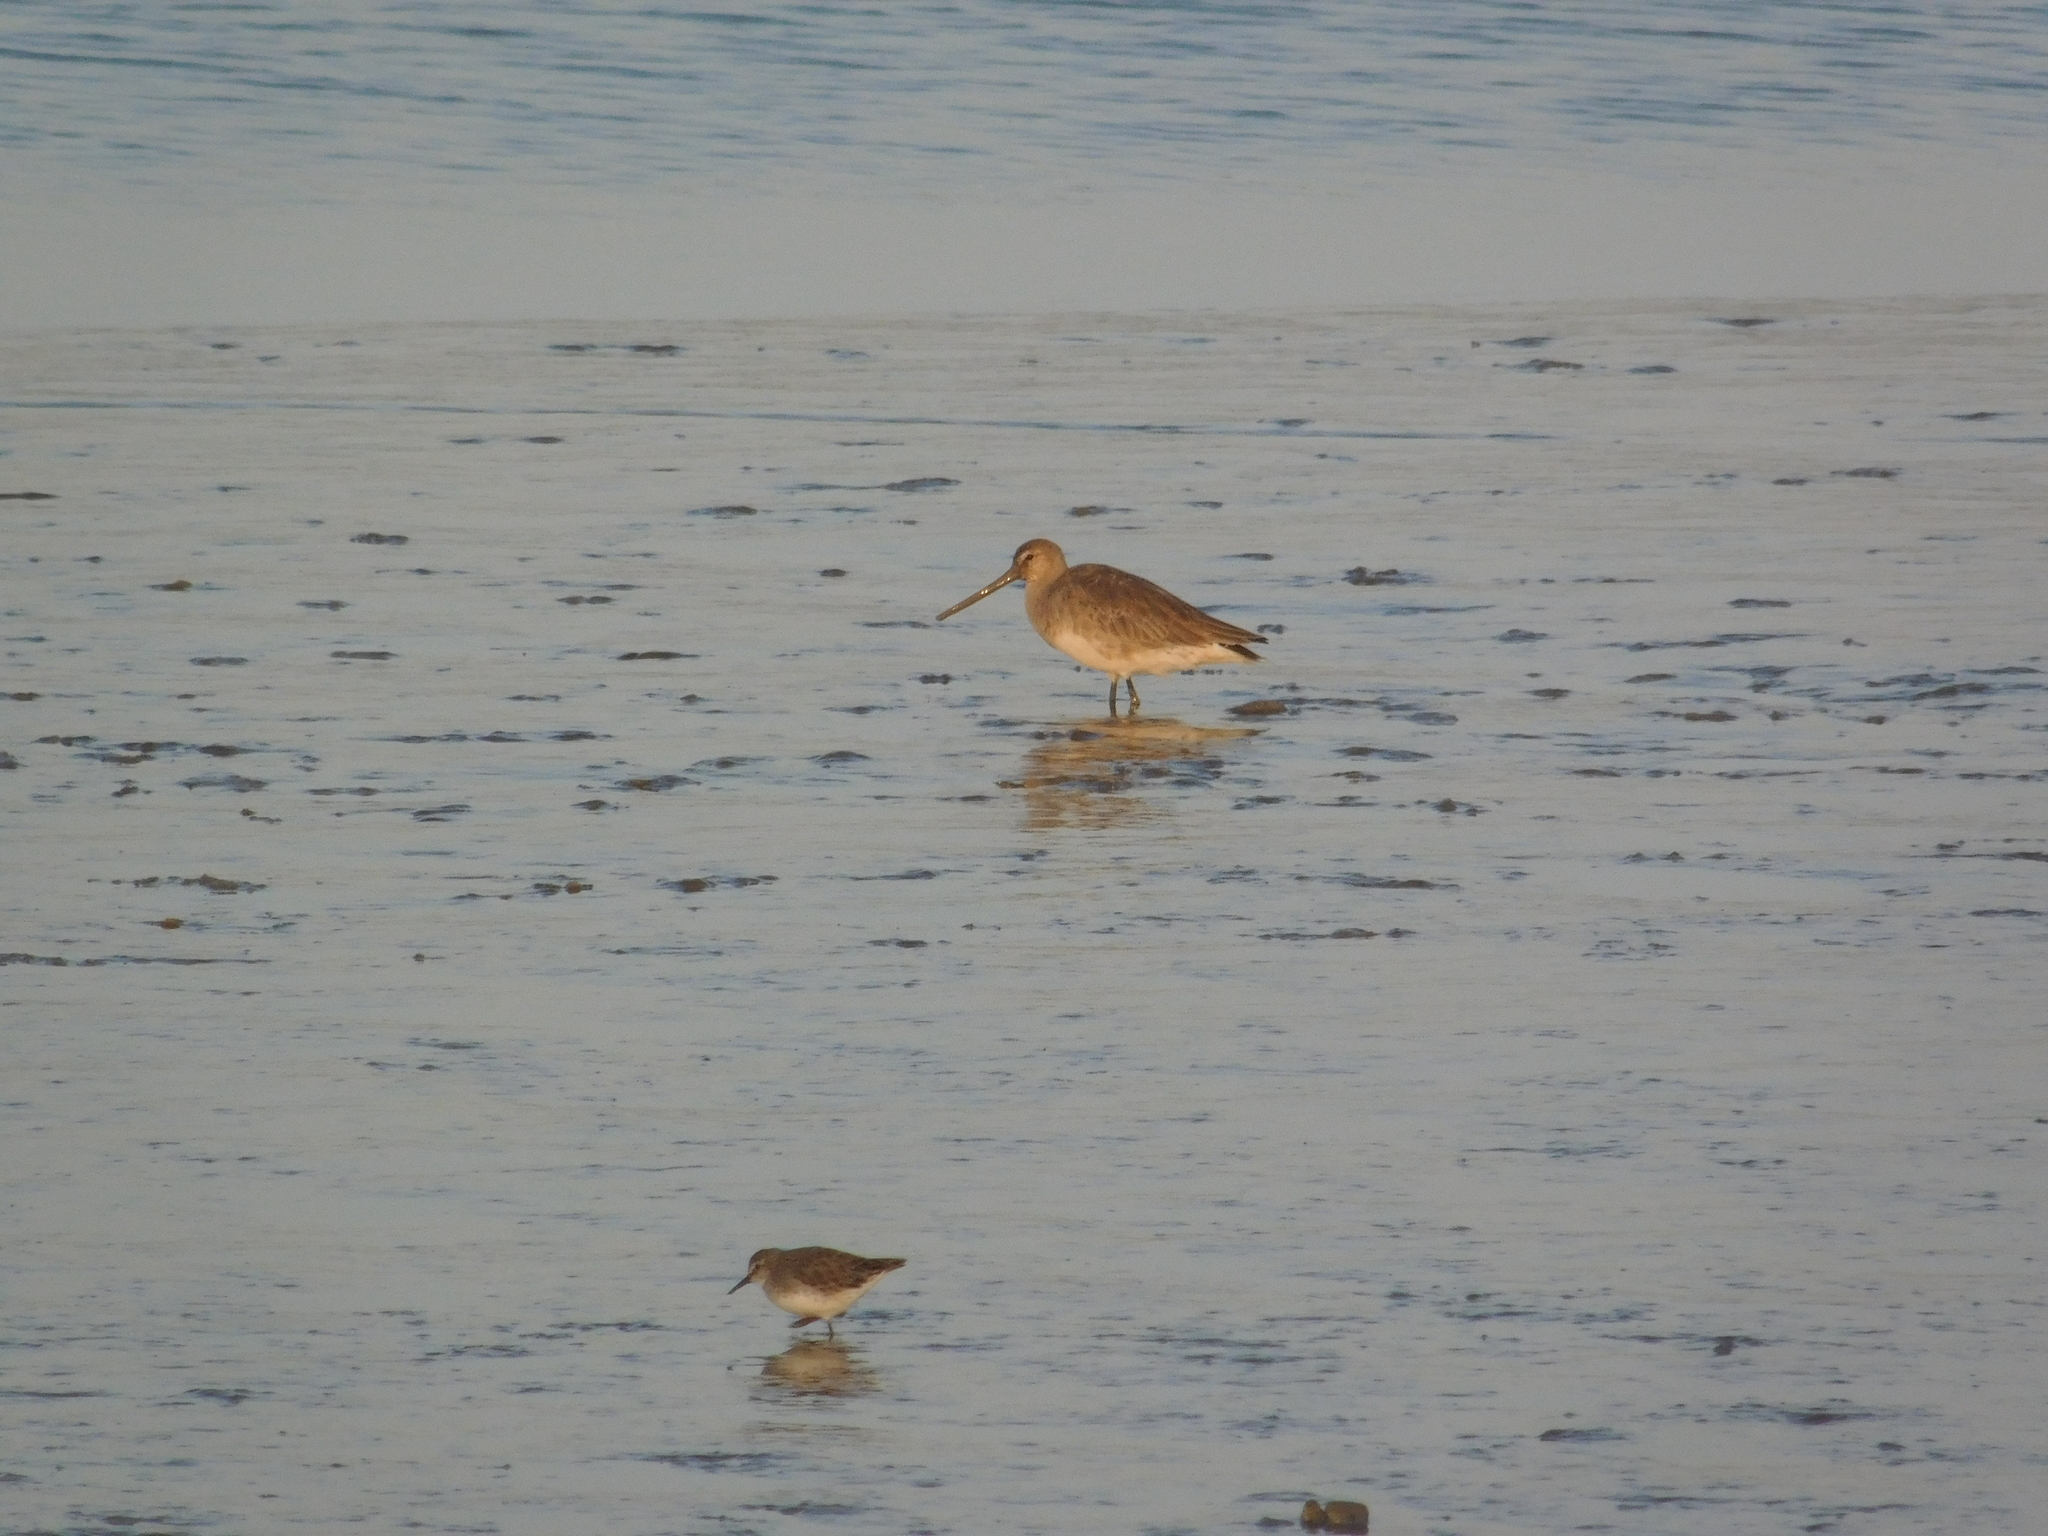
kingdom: Animalia
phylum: Chordata
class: Aves
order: Charadriiformes
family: Scolopacidae
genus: Limosa
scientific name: Limosa haemastica
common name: Hudsonian godwit
